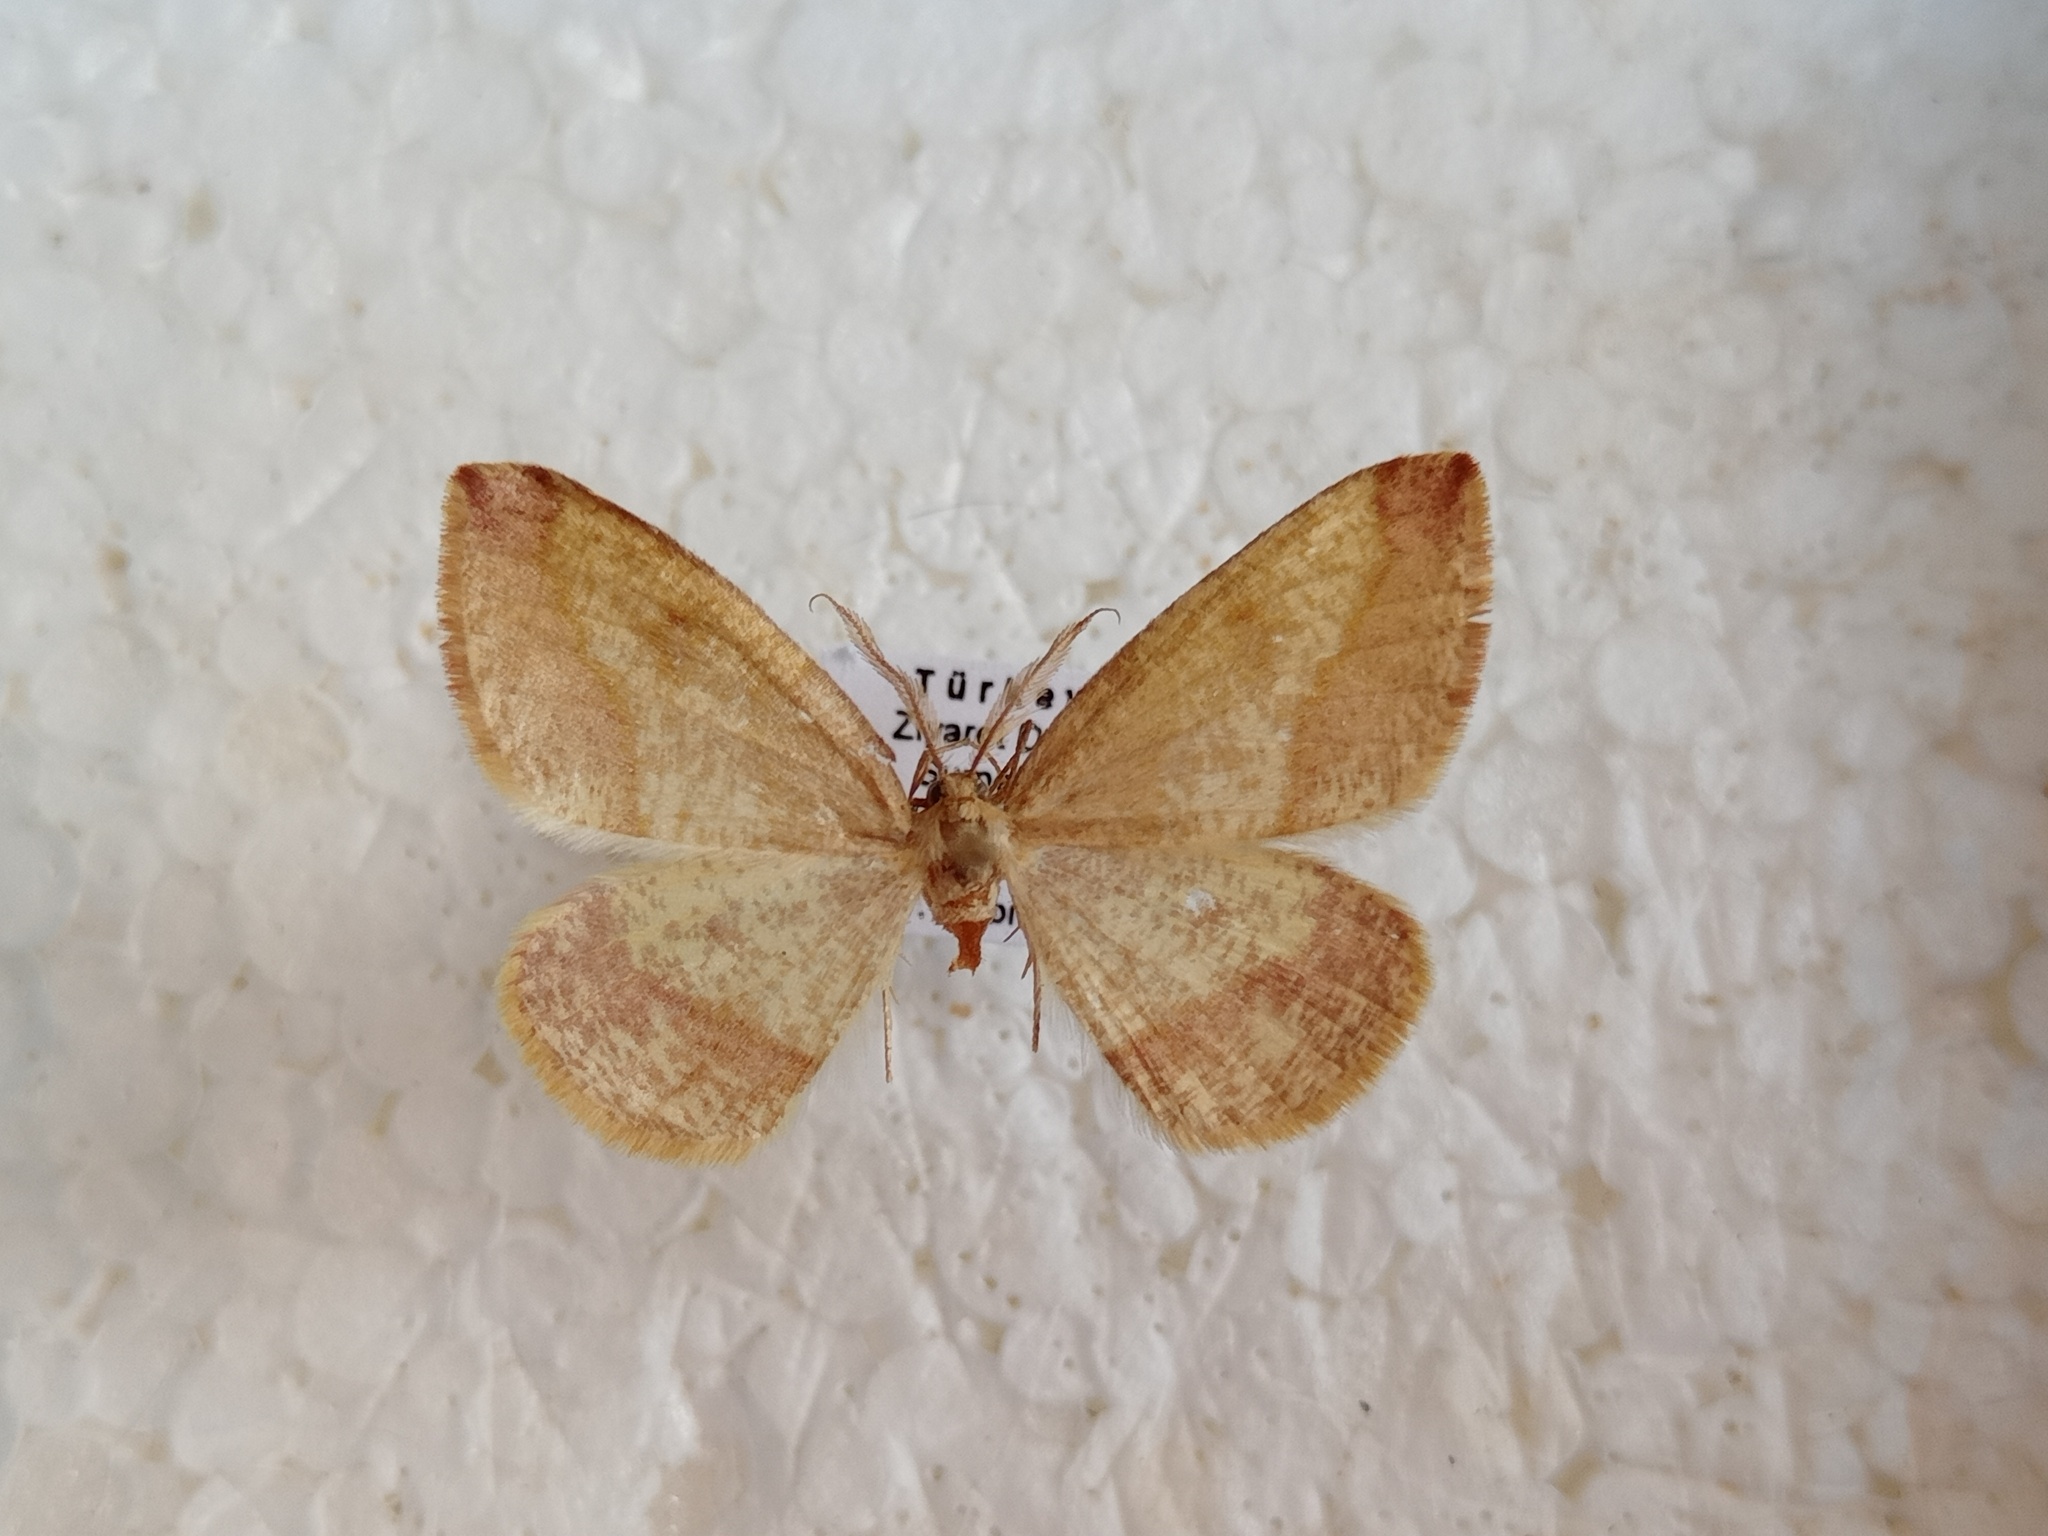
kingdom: Animalia
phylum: Arthropoda
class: Insecta
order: Lepidoptera
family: Geometridae
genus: Heterolocha
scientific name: Heterolocha laminaria
